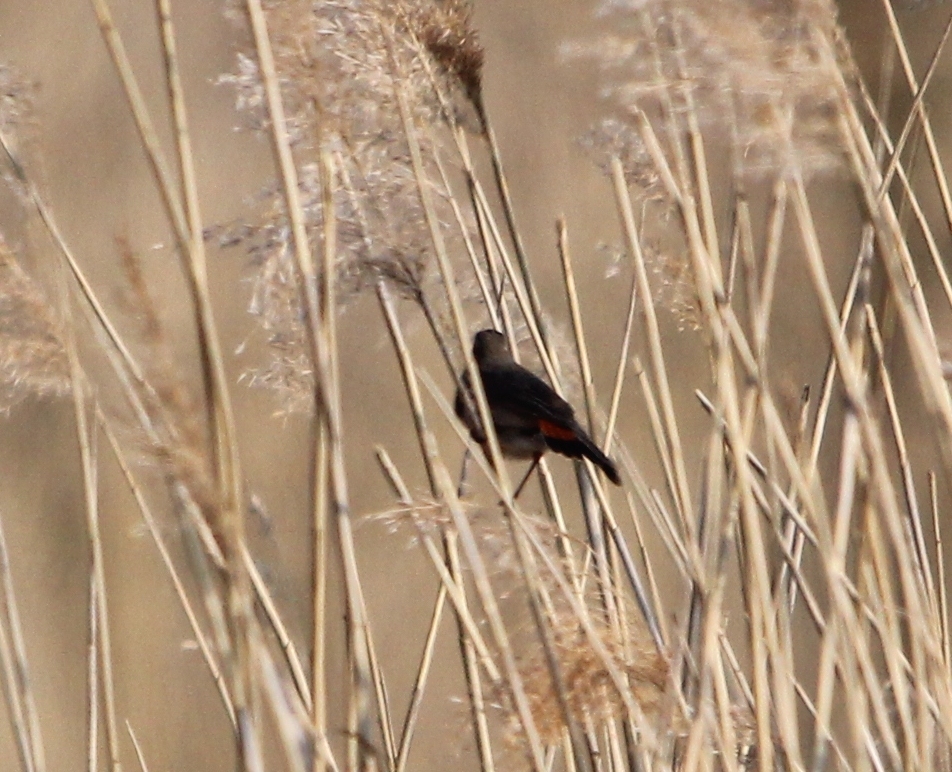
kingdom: Animalia
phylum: Chordata
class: Aves
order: Passeriformes
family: Muscicapidae
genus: Luscinia
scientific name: Luscinia svecica
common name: Bluethroat
